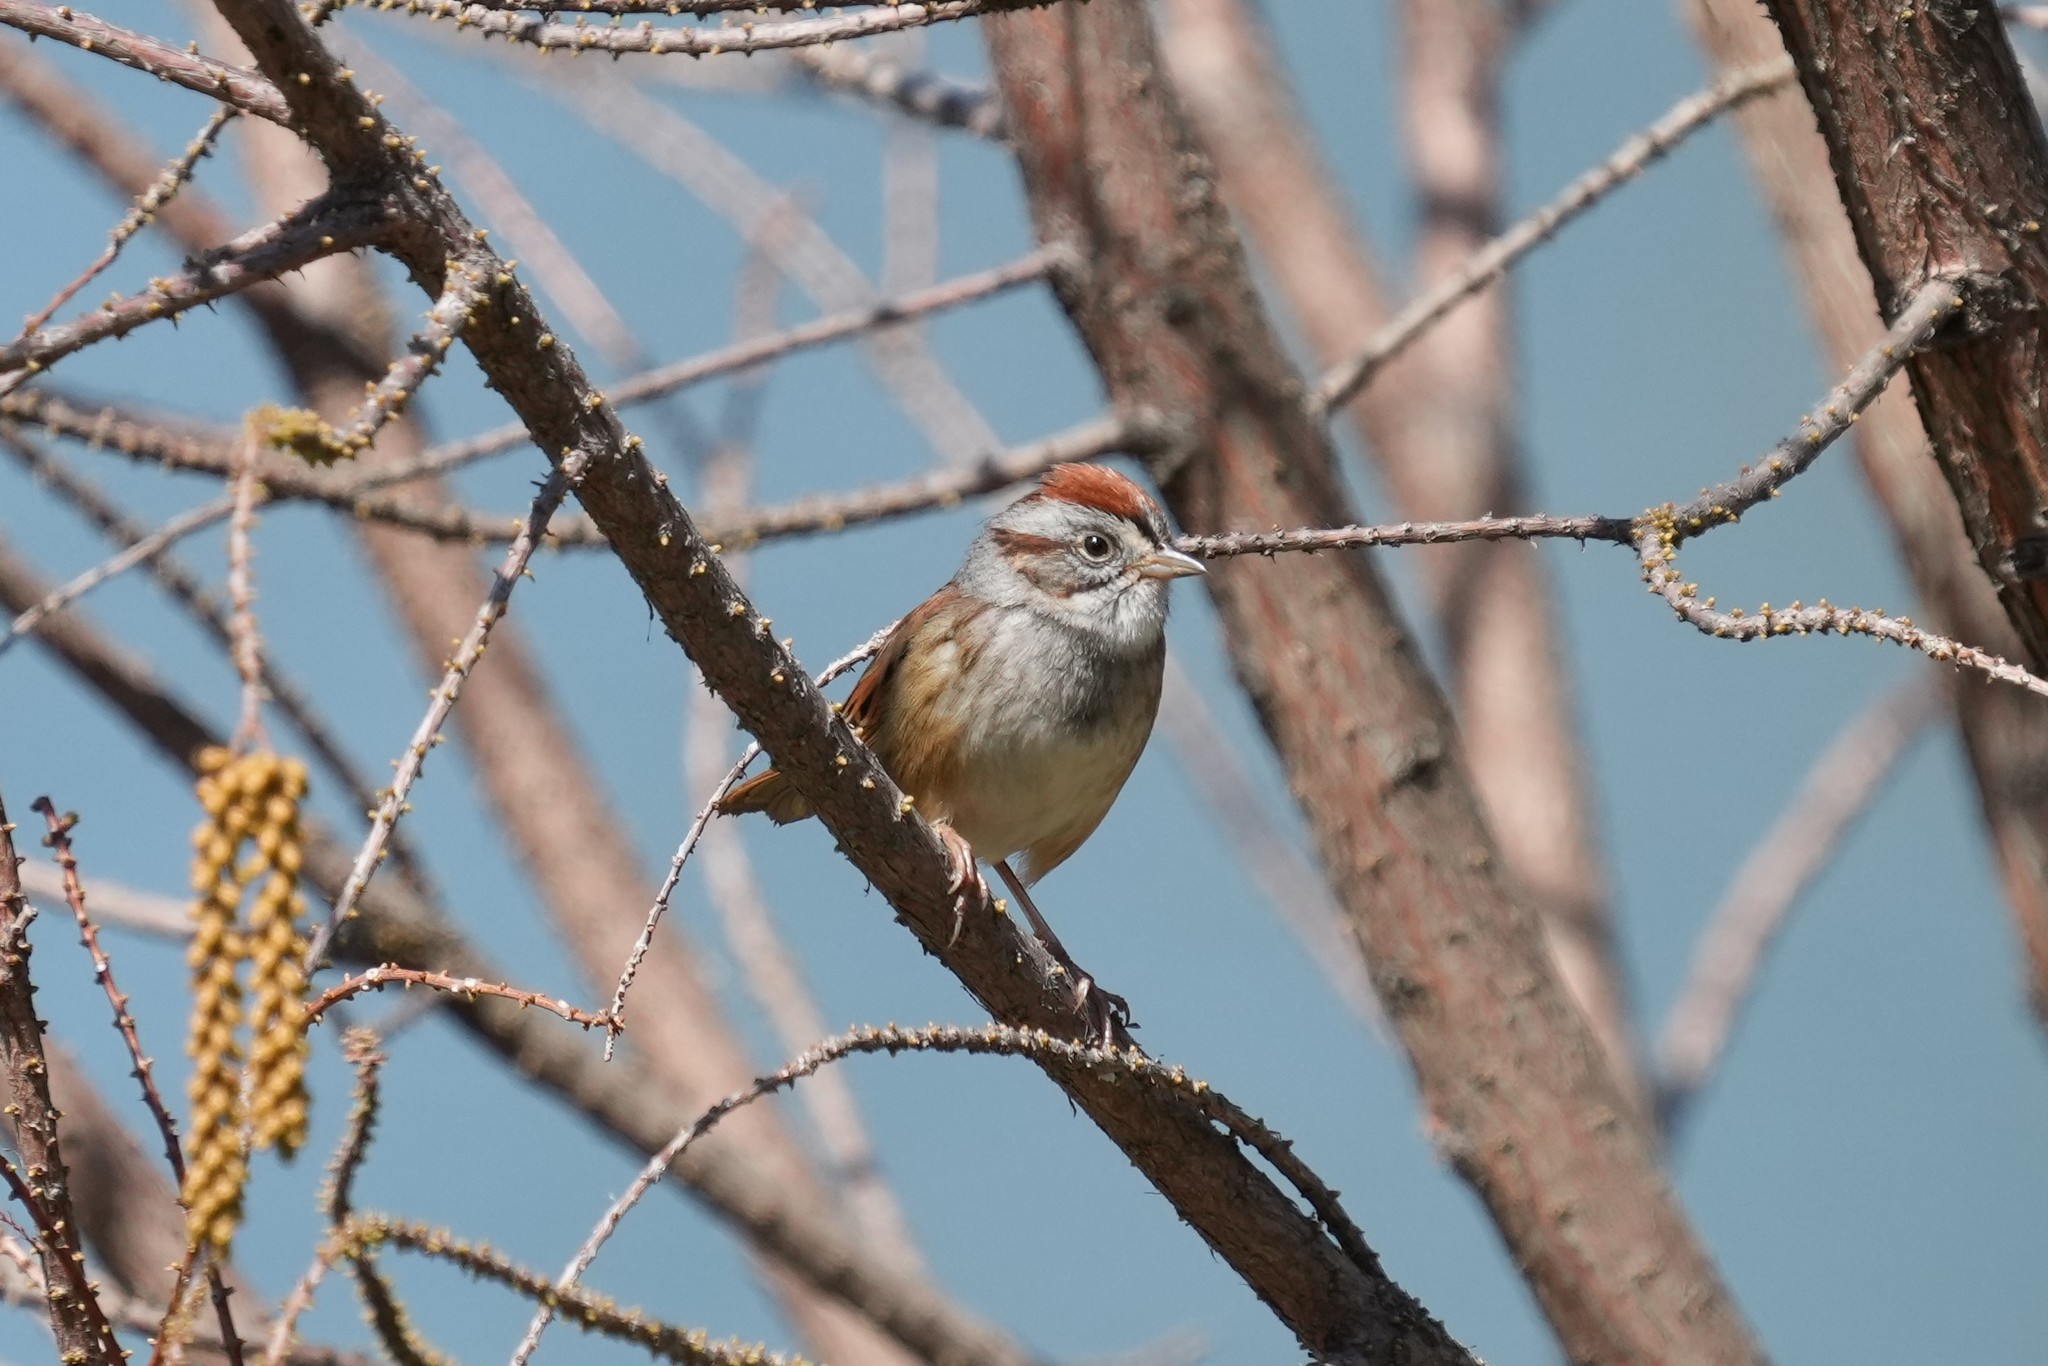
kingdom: Animalia
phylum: Chordata
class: Aves
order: Passeriformes
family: Passerellidae
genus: Melospiza
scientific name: Melospiza georgiana
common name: Swamp sparrow
